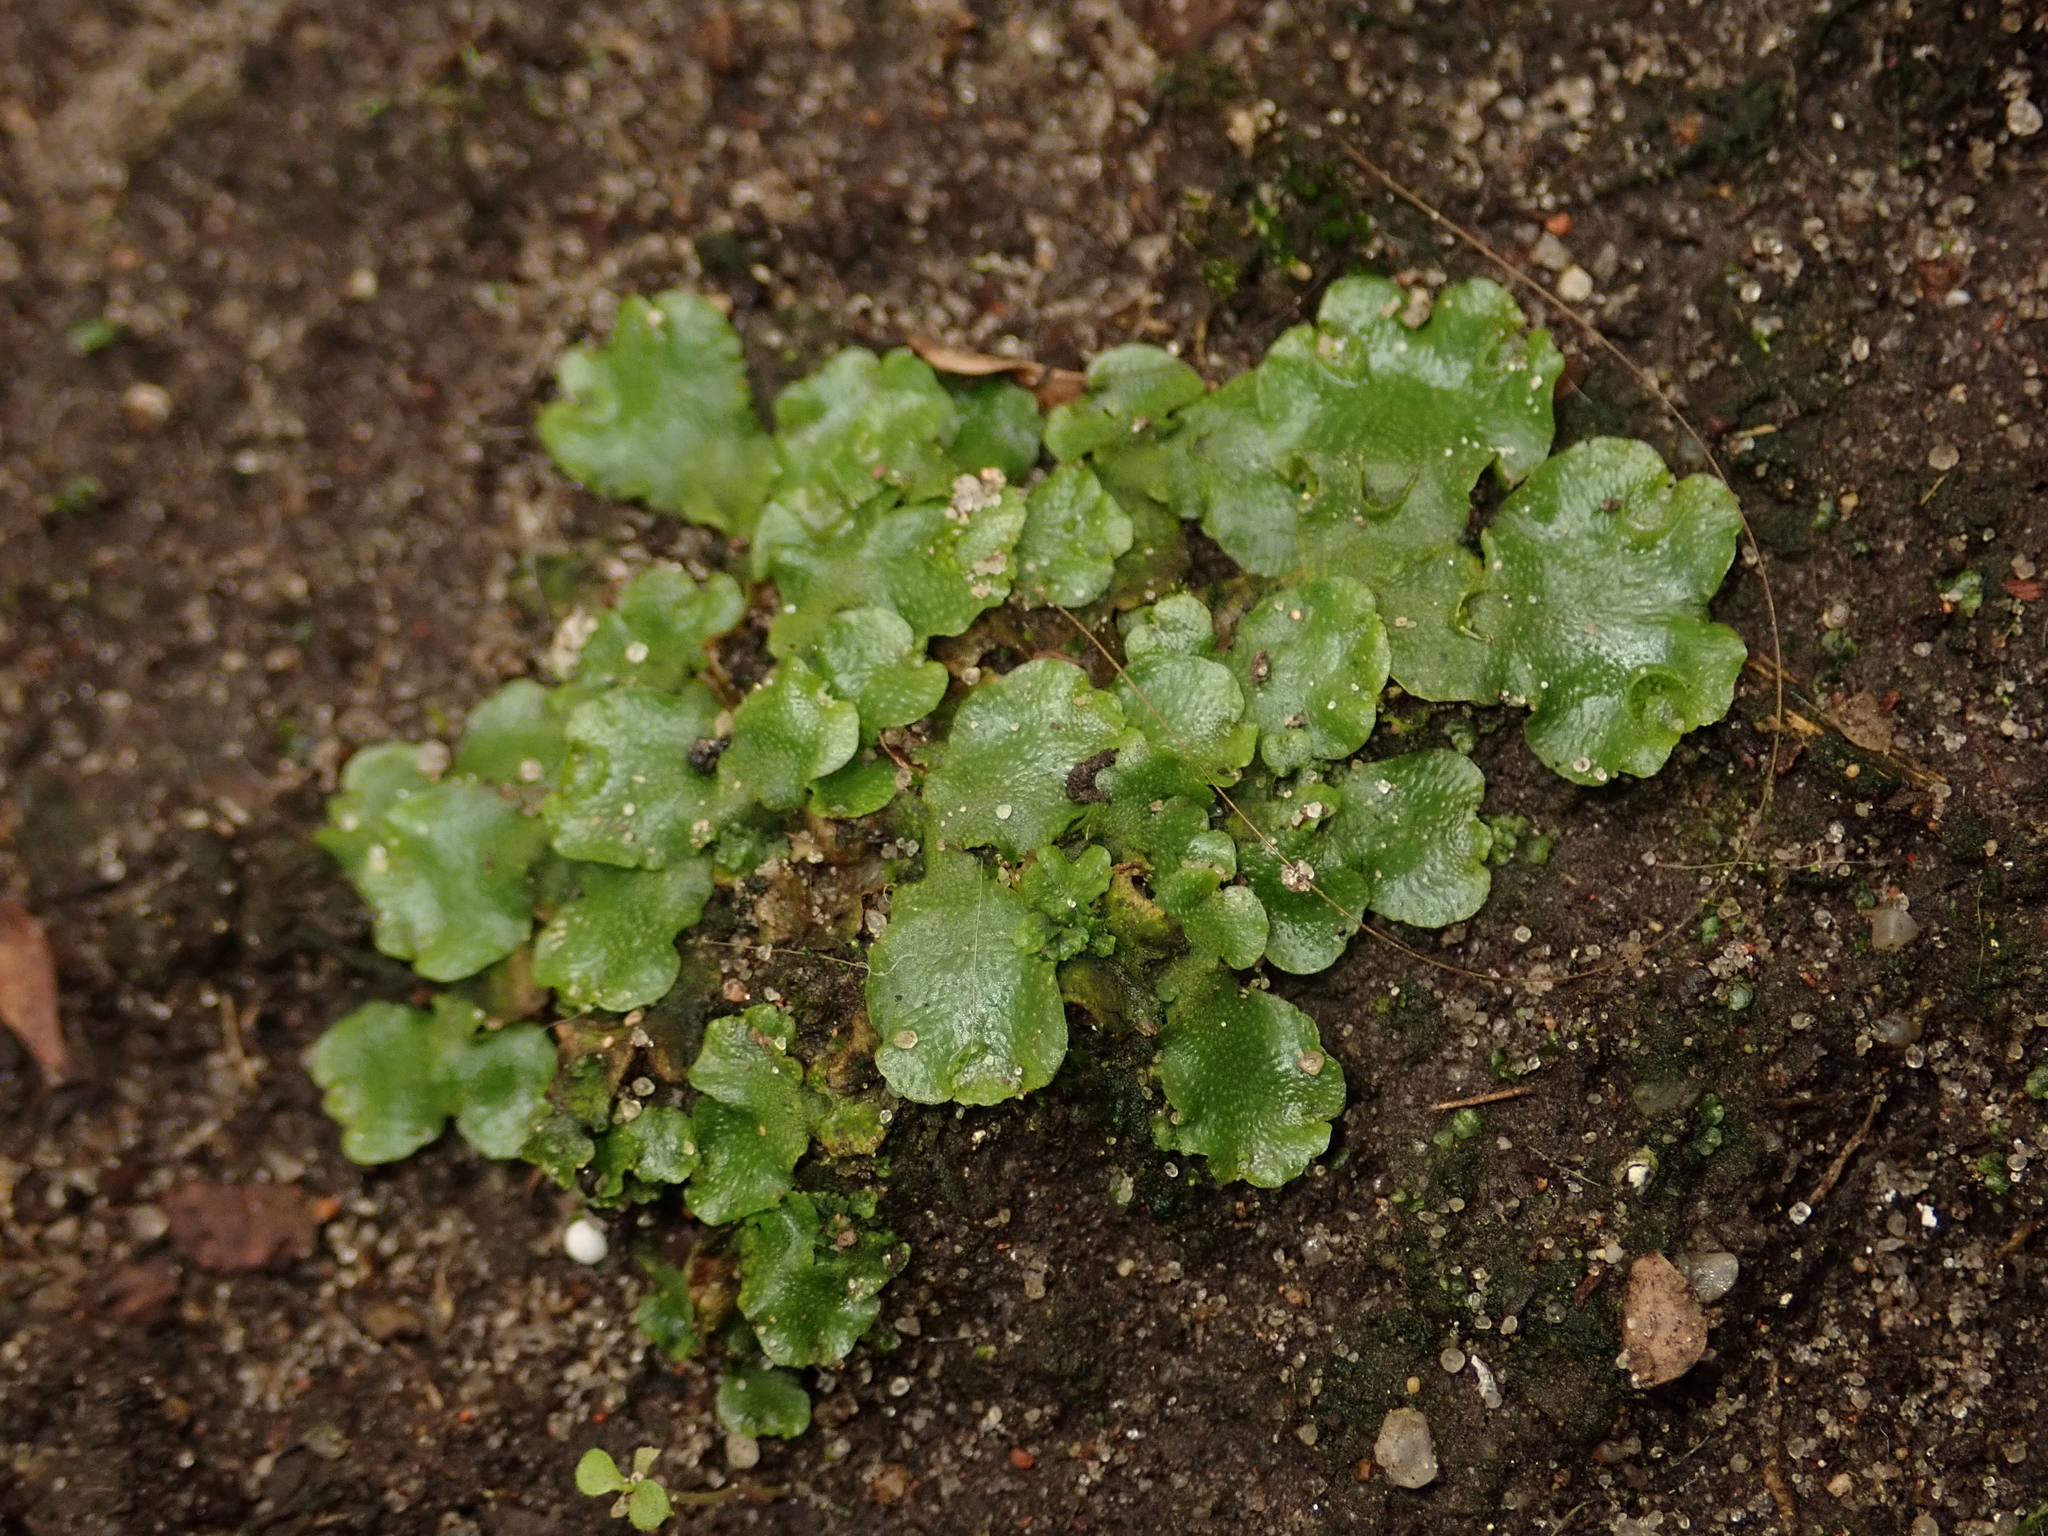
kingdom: Plantae
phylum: Marchantiophyta
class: Marchantiopsida
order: Lunulariales
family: Lunulariaceae
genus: Lunularia
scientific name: Lunularia cruciata
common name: Crescent-cup liverwort
